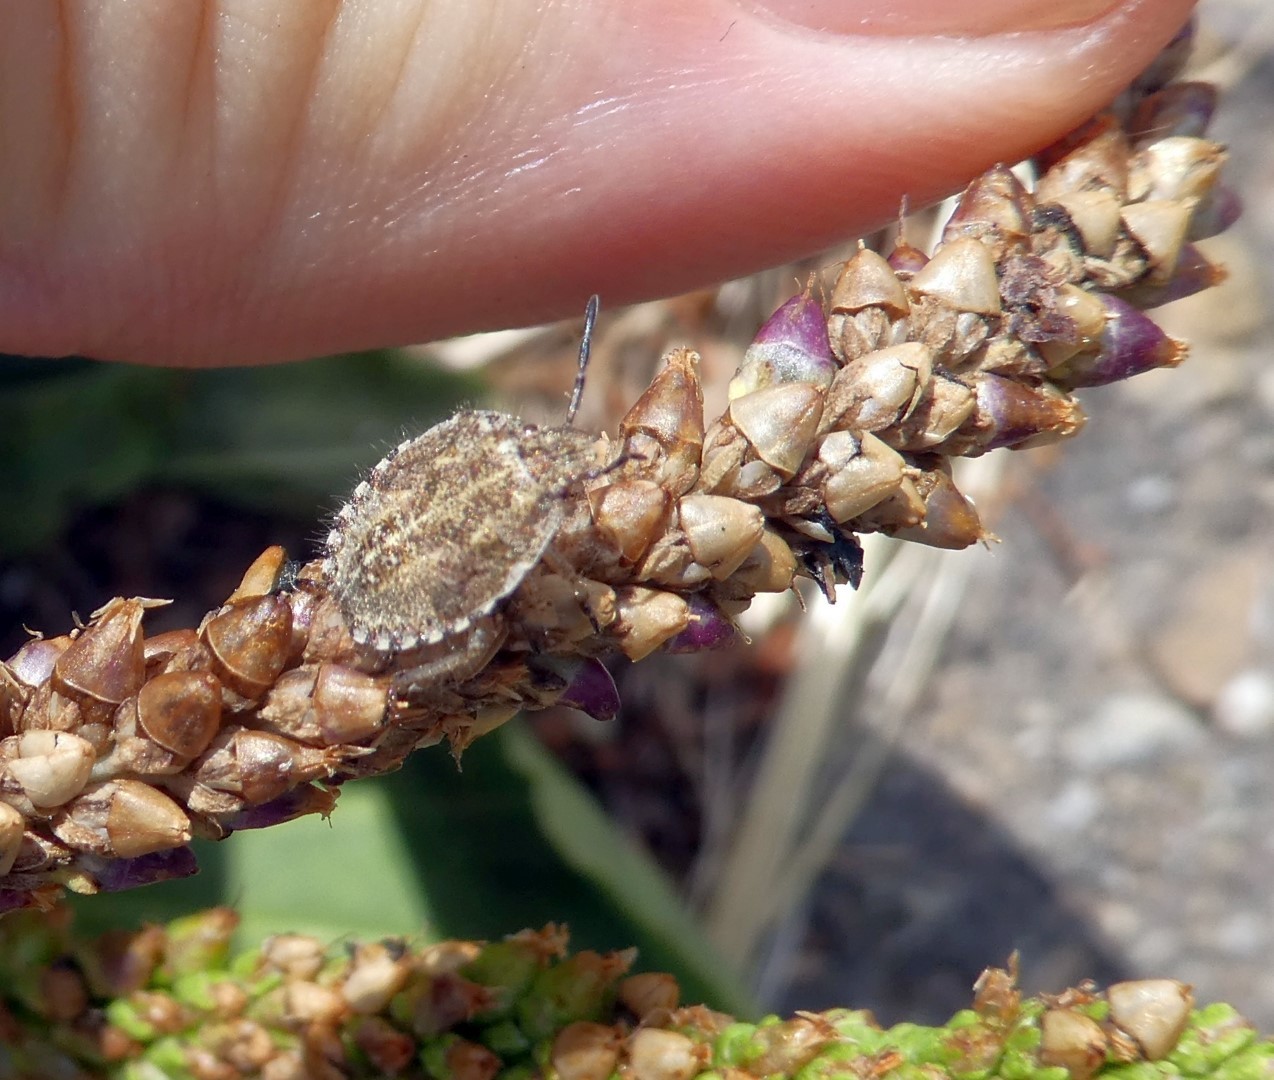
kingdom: Animalia
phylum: Arthropoda
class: Insecta
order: Hemiptera
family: Pentatomidae
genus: Dolycoris
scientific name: Dolycoris baccarum
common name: Sloe bug
